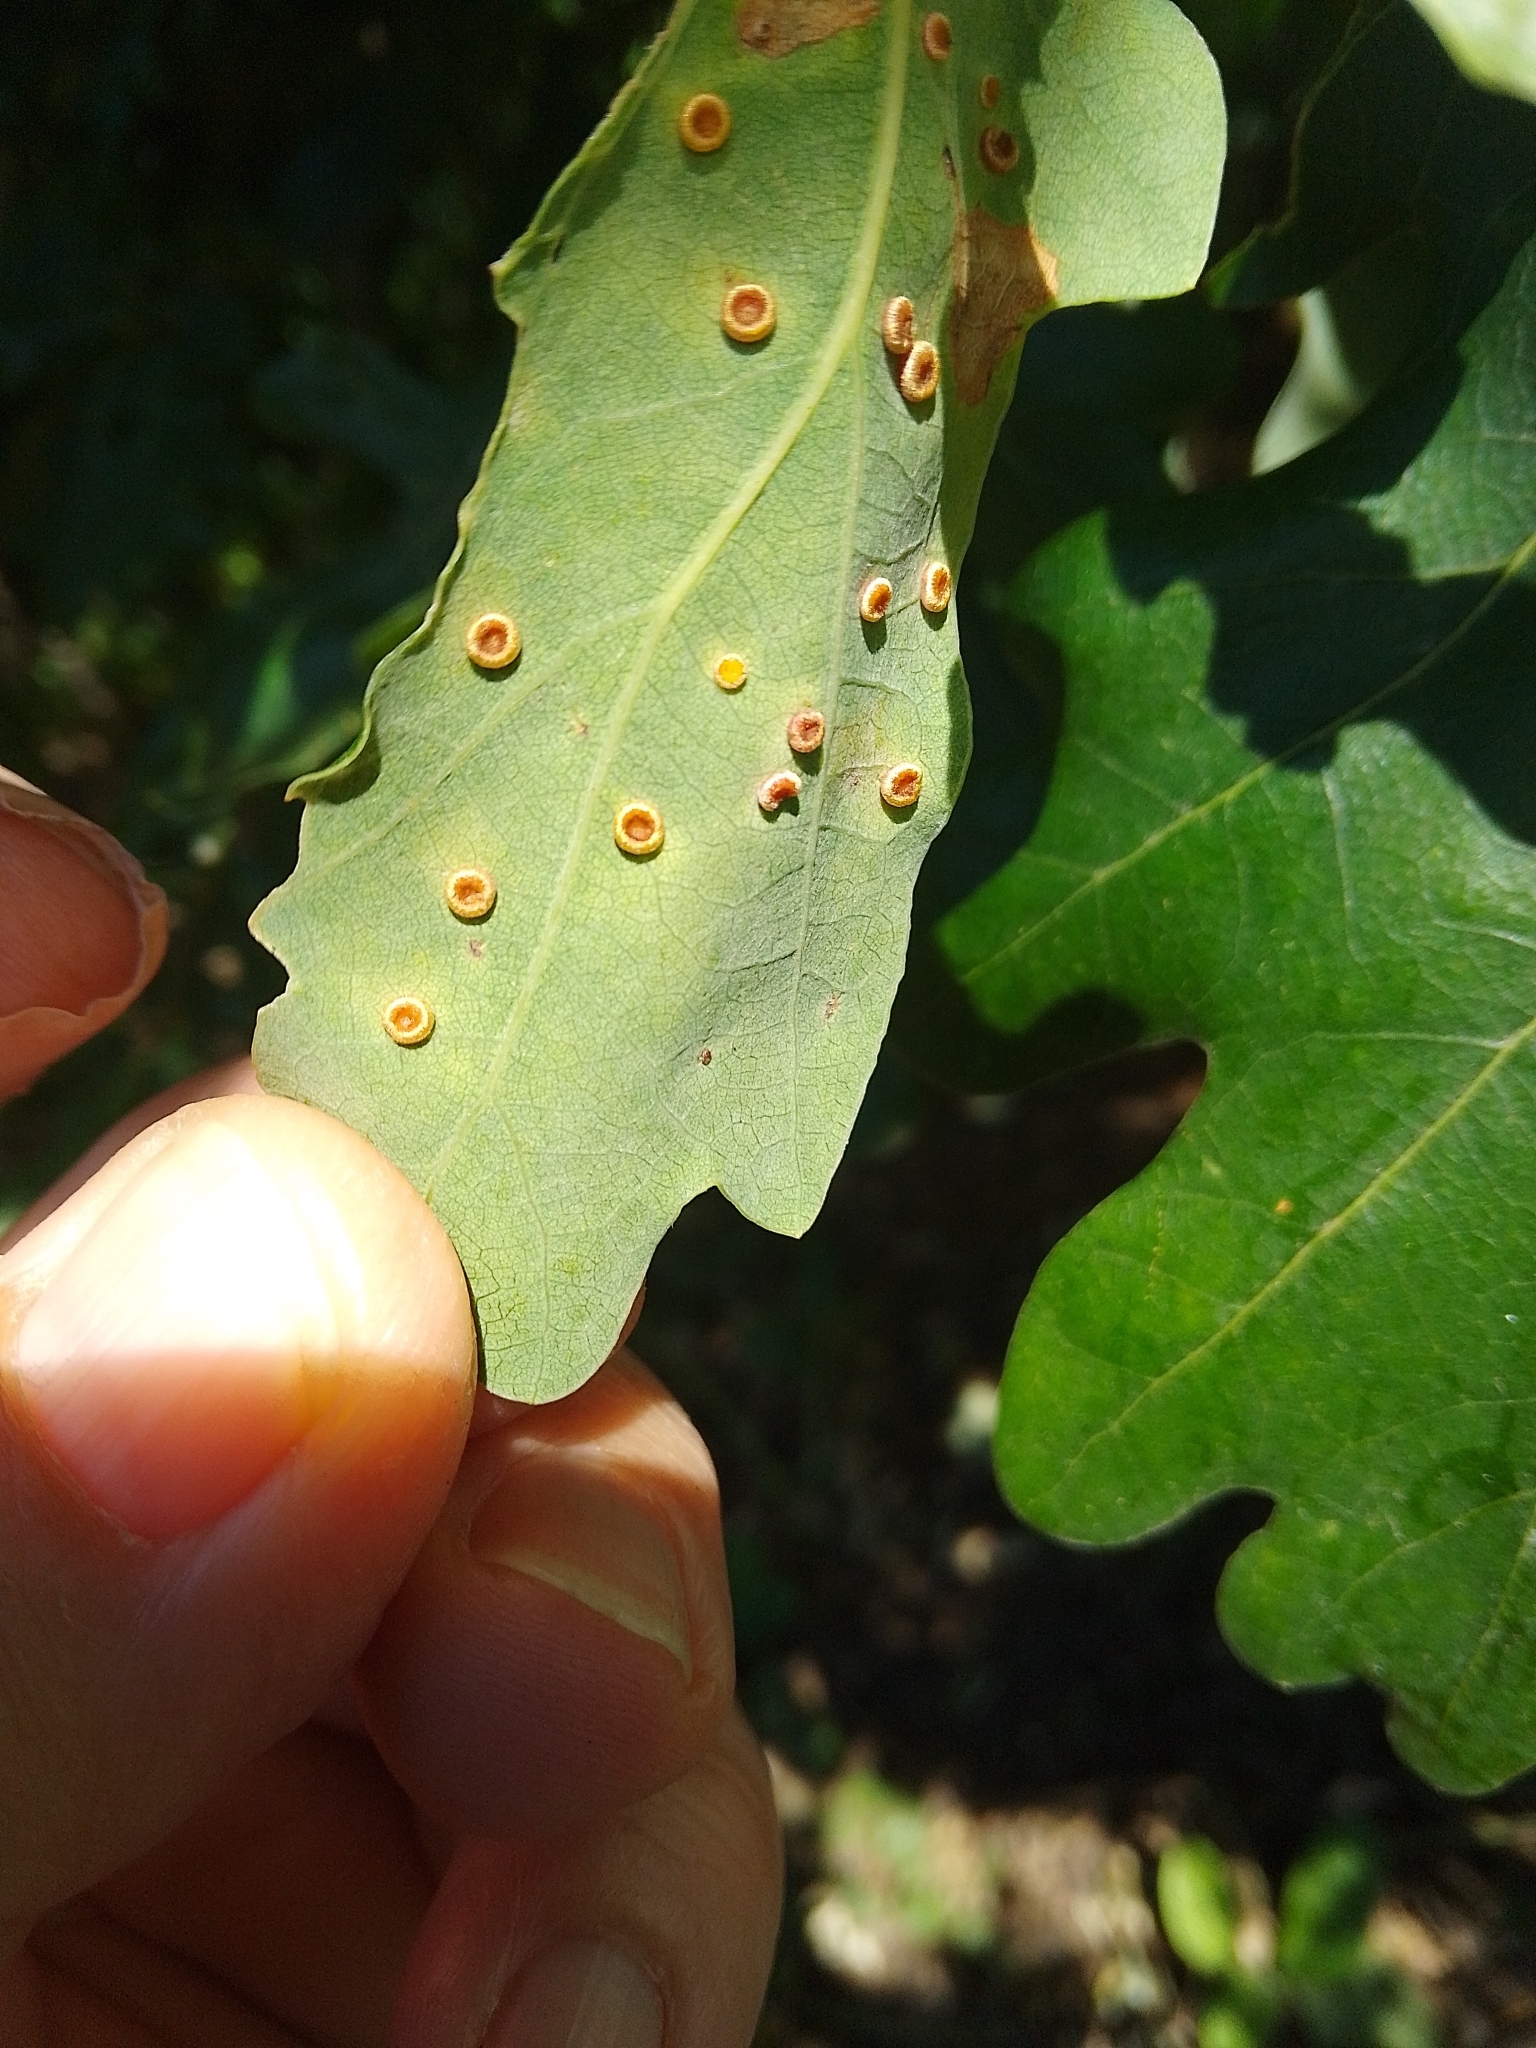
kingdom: Animalia
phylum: Arthropoda
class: Insecta
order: Hymenoptera
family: Cynipidae
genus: Neuroterus
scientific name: Neuroterus numismalis
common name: Silk-button spangle gall
